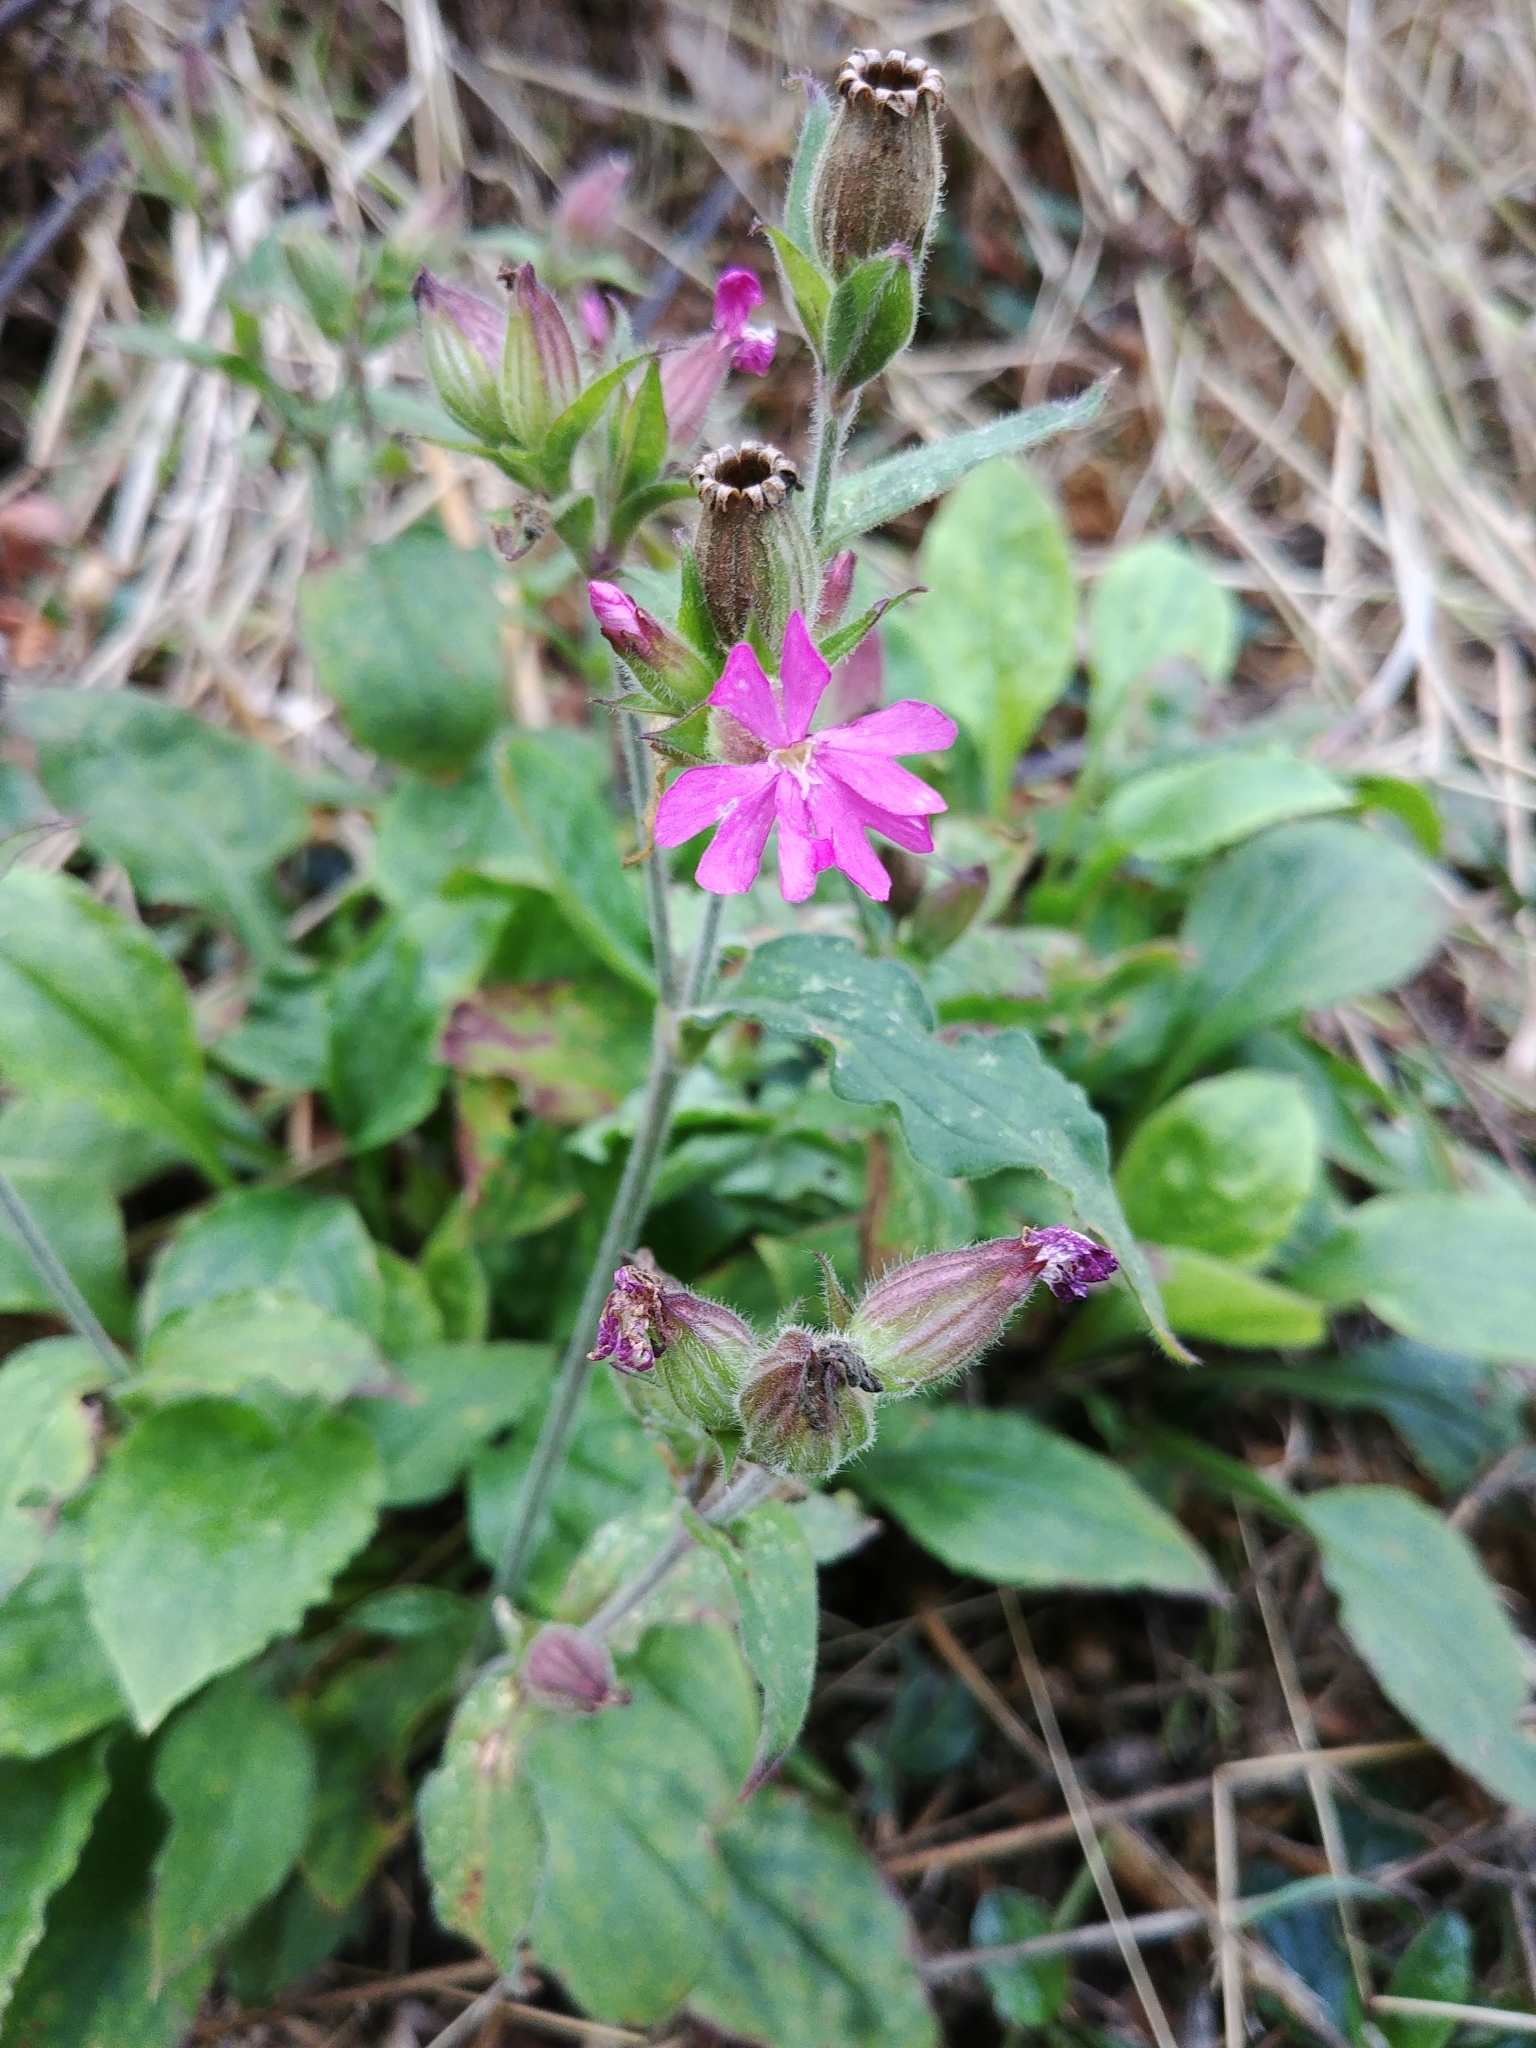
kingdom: Plantae
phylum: Tracheophyta
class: Magnoliopsida
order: Caryophyllales
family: Caryophyllaceae
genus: Silene
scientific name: Silene dioica
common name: Red campion
